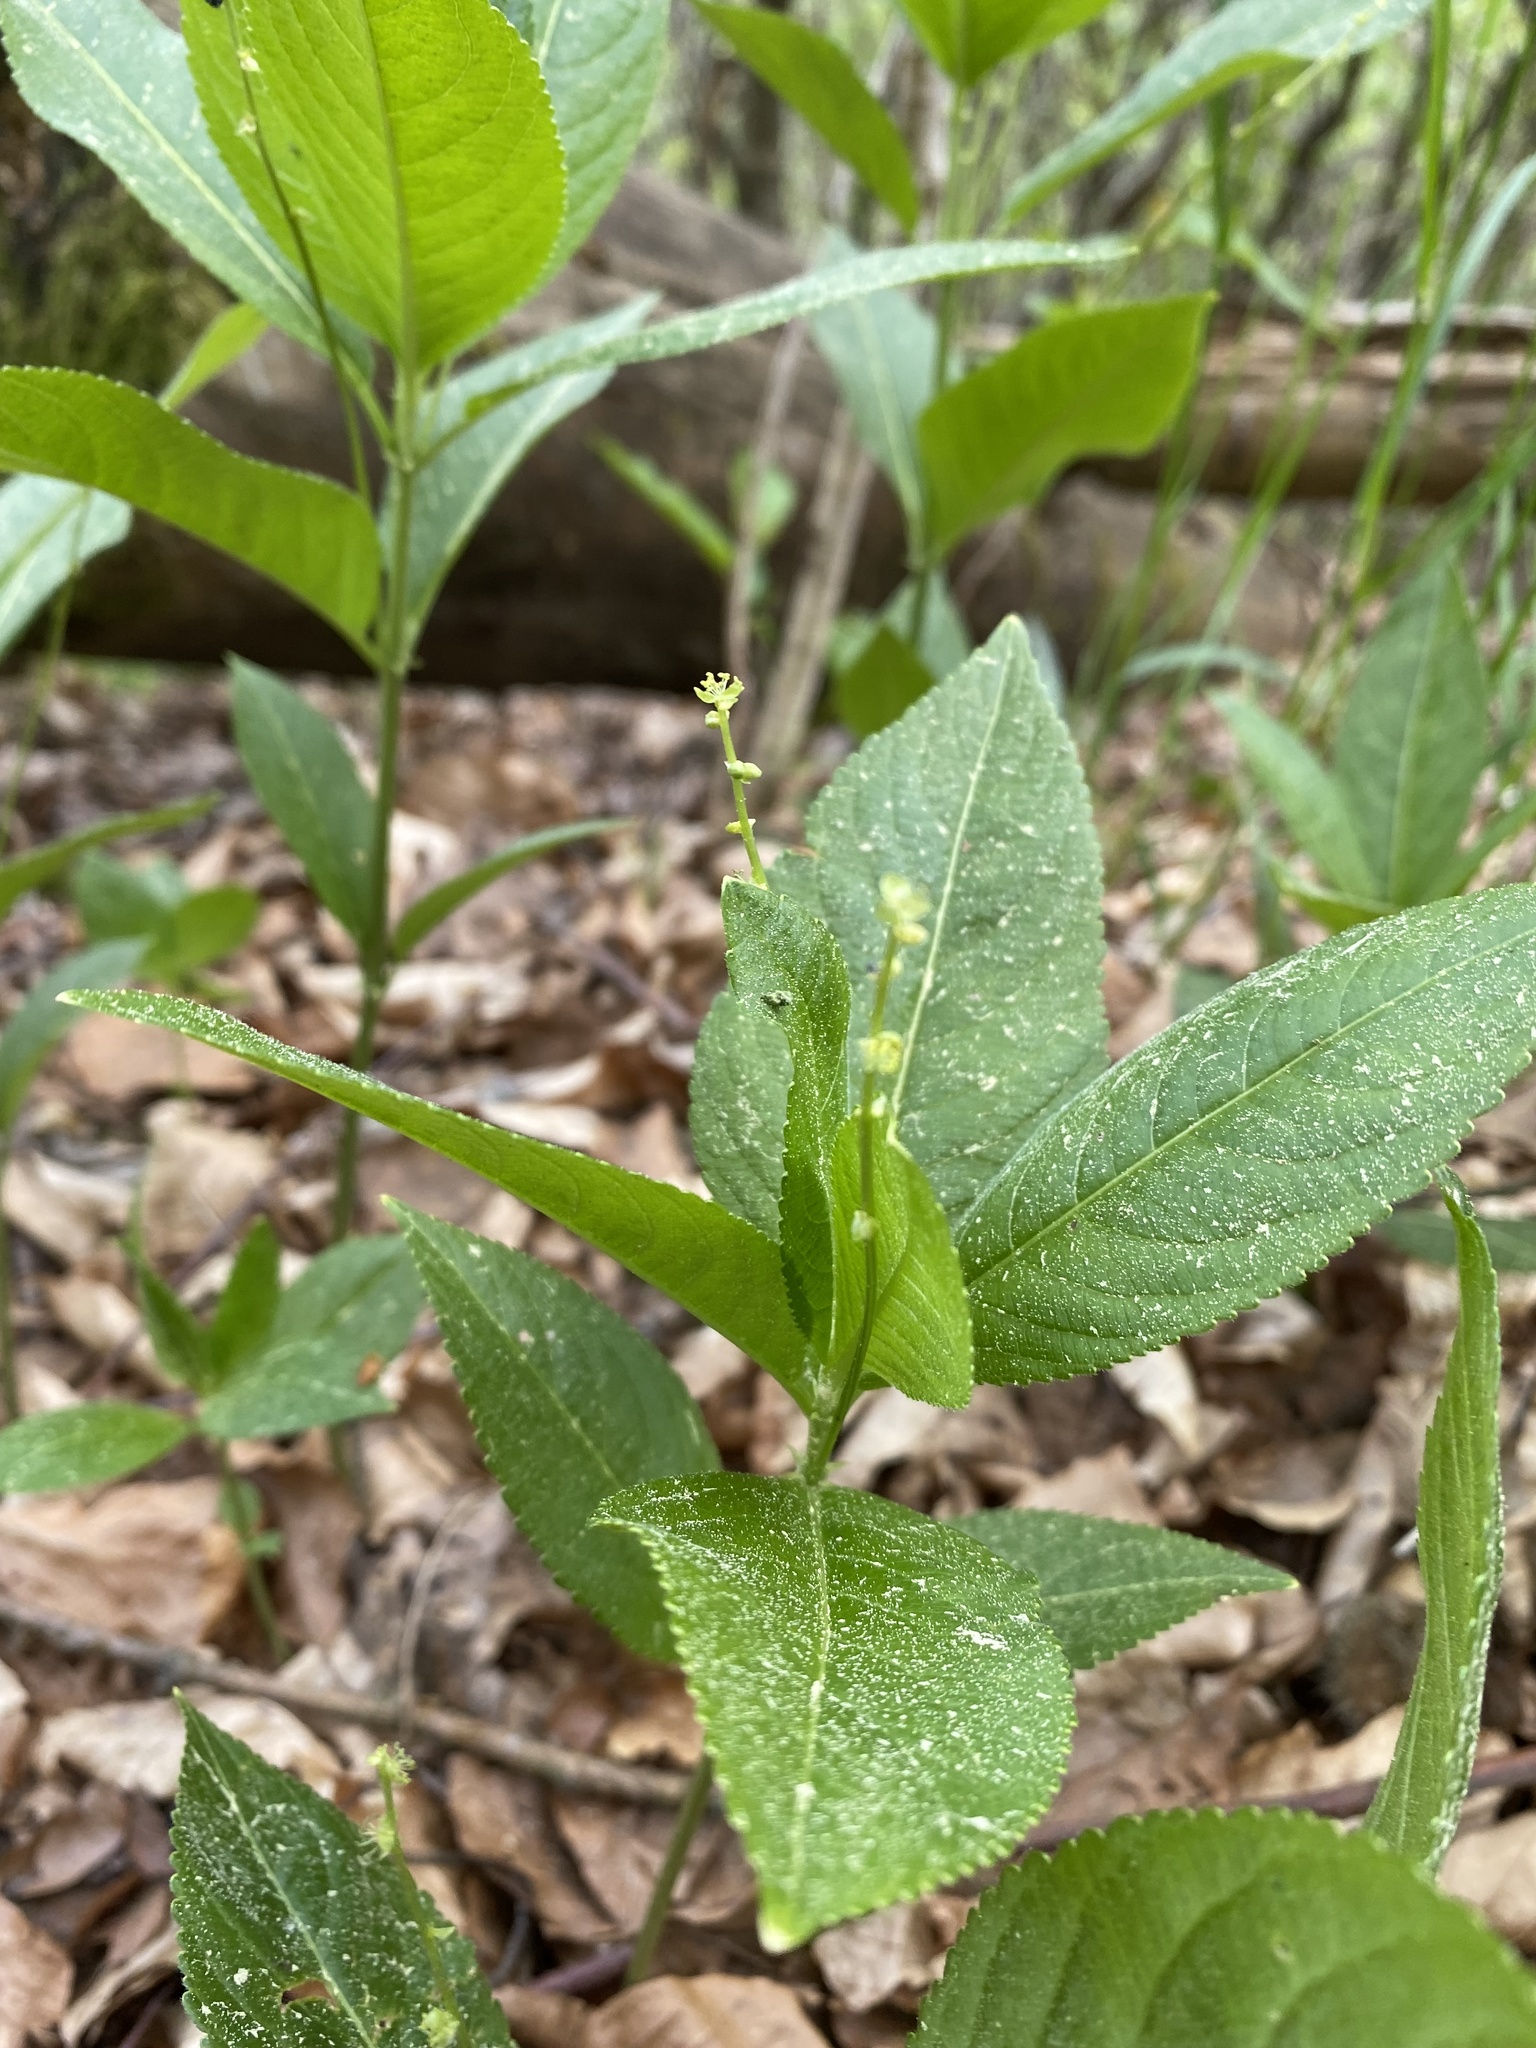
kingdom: Plantae
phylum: Tracheophyta
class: Magnoliopsida
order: Malpighiales
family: Euphorbiaceae
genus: Mercurialis
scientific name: Mercurialis perennis
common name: Dog mercury
